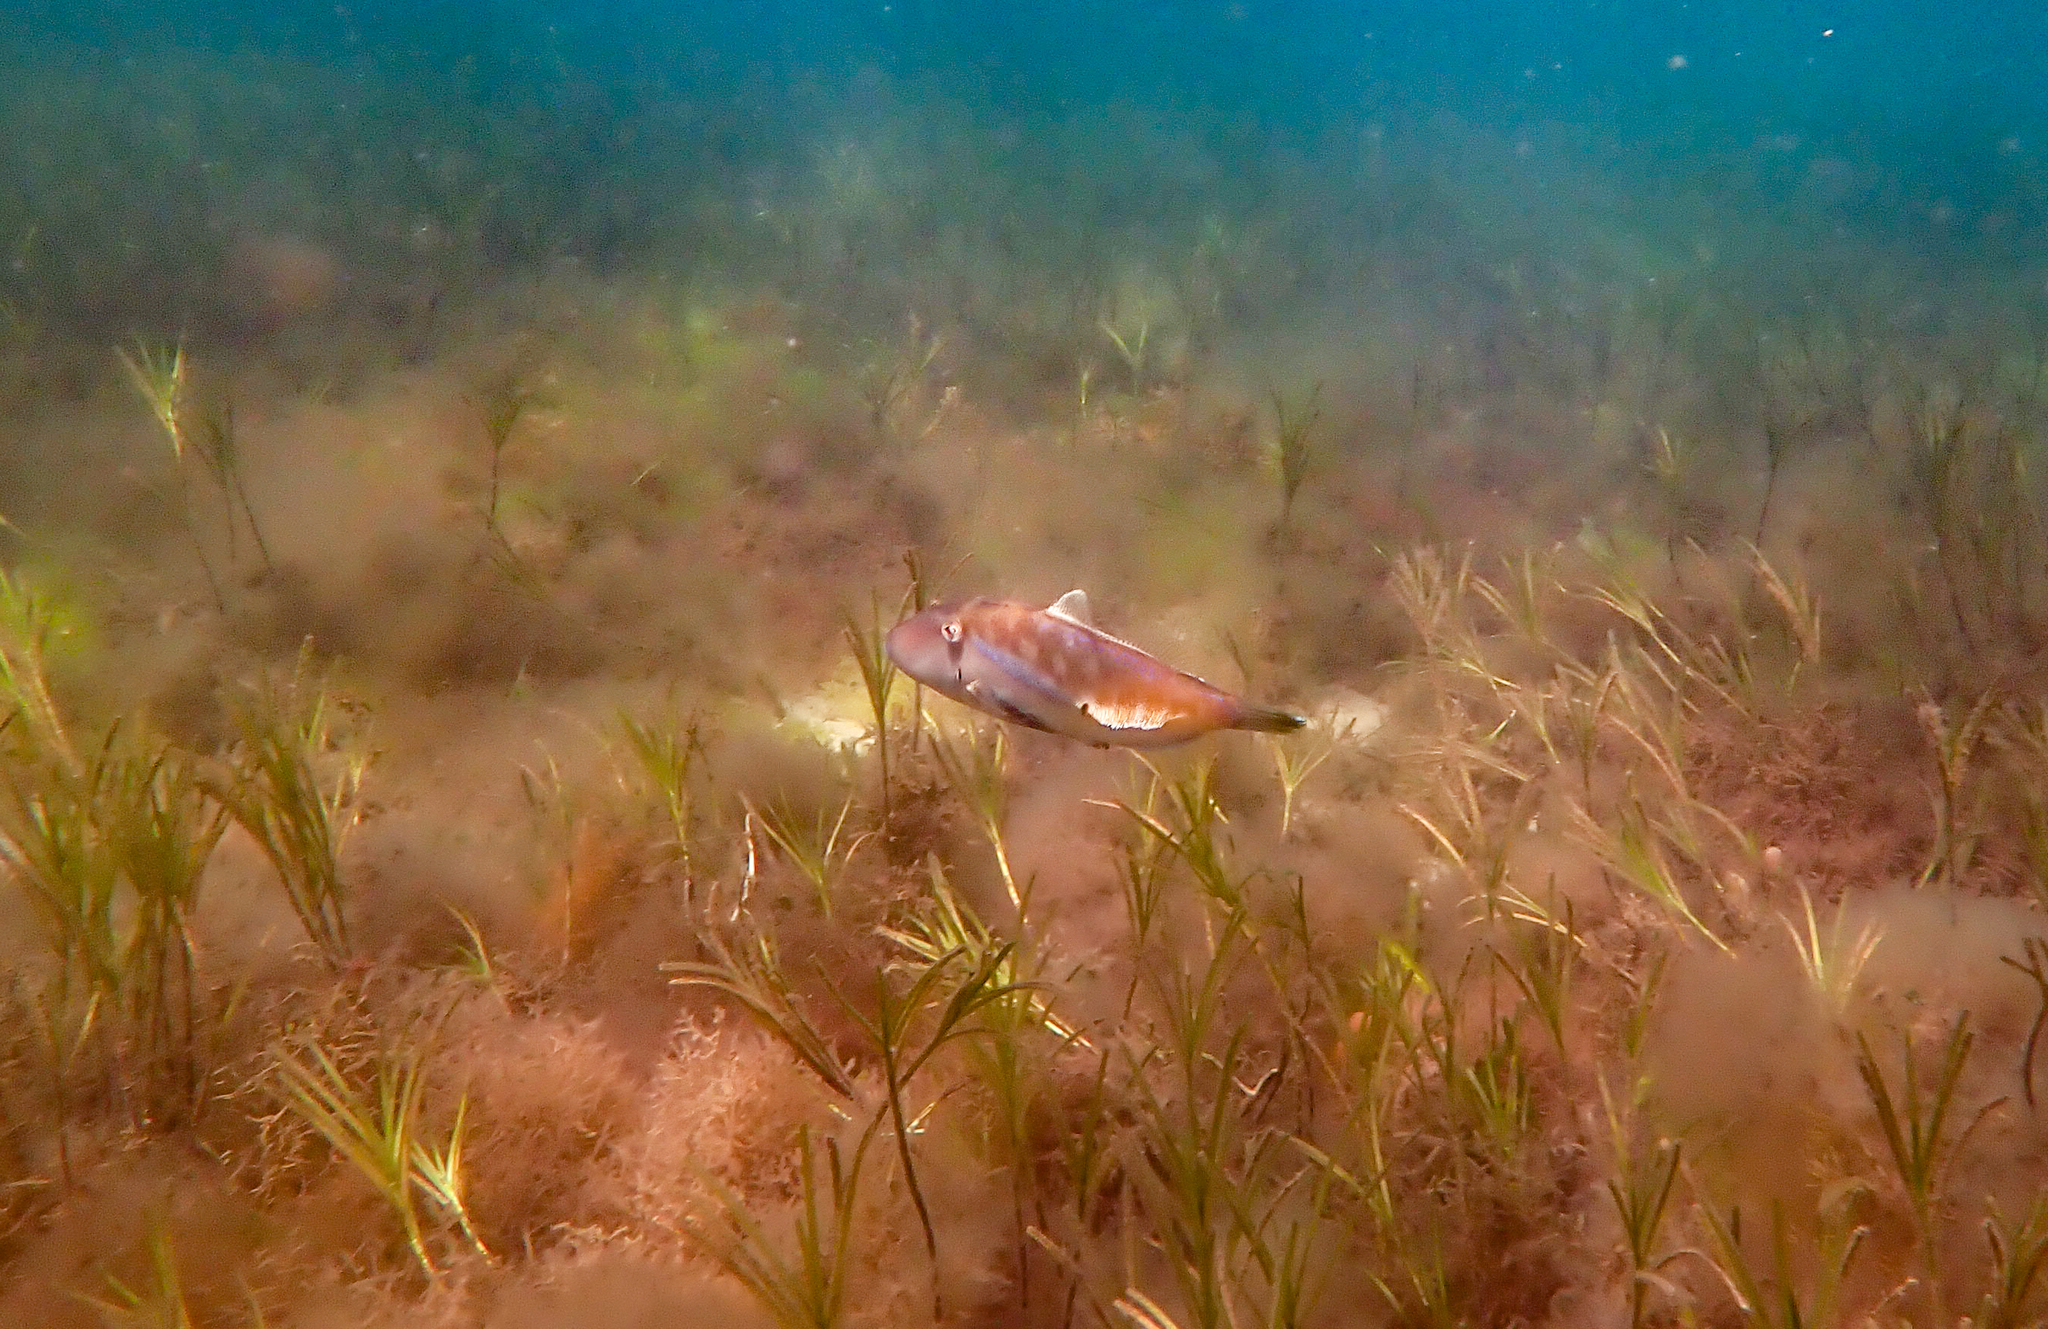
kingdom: Animalia
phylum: Chordata
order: Tetraodontiformes
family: Monacanthidae
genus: Acanthaluteres
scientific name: Acanthaluteres vittiger
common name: Brown leatherjacket
